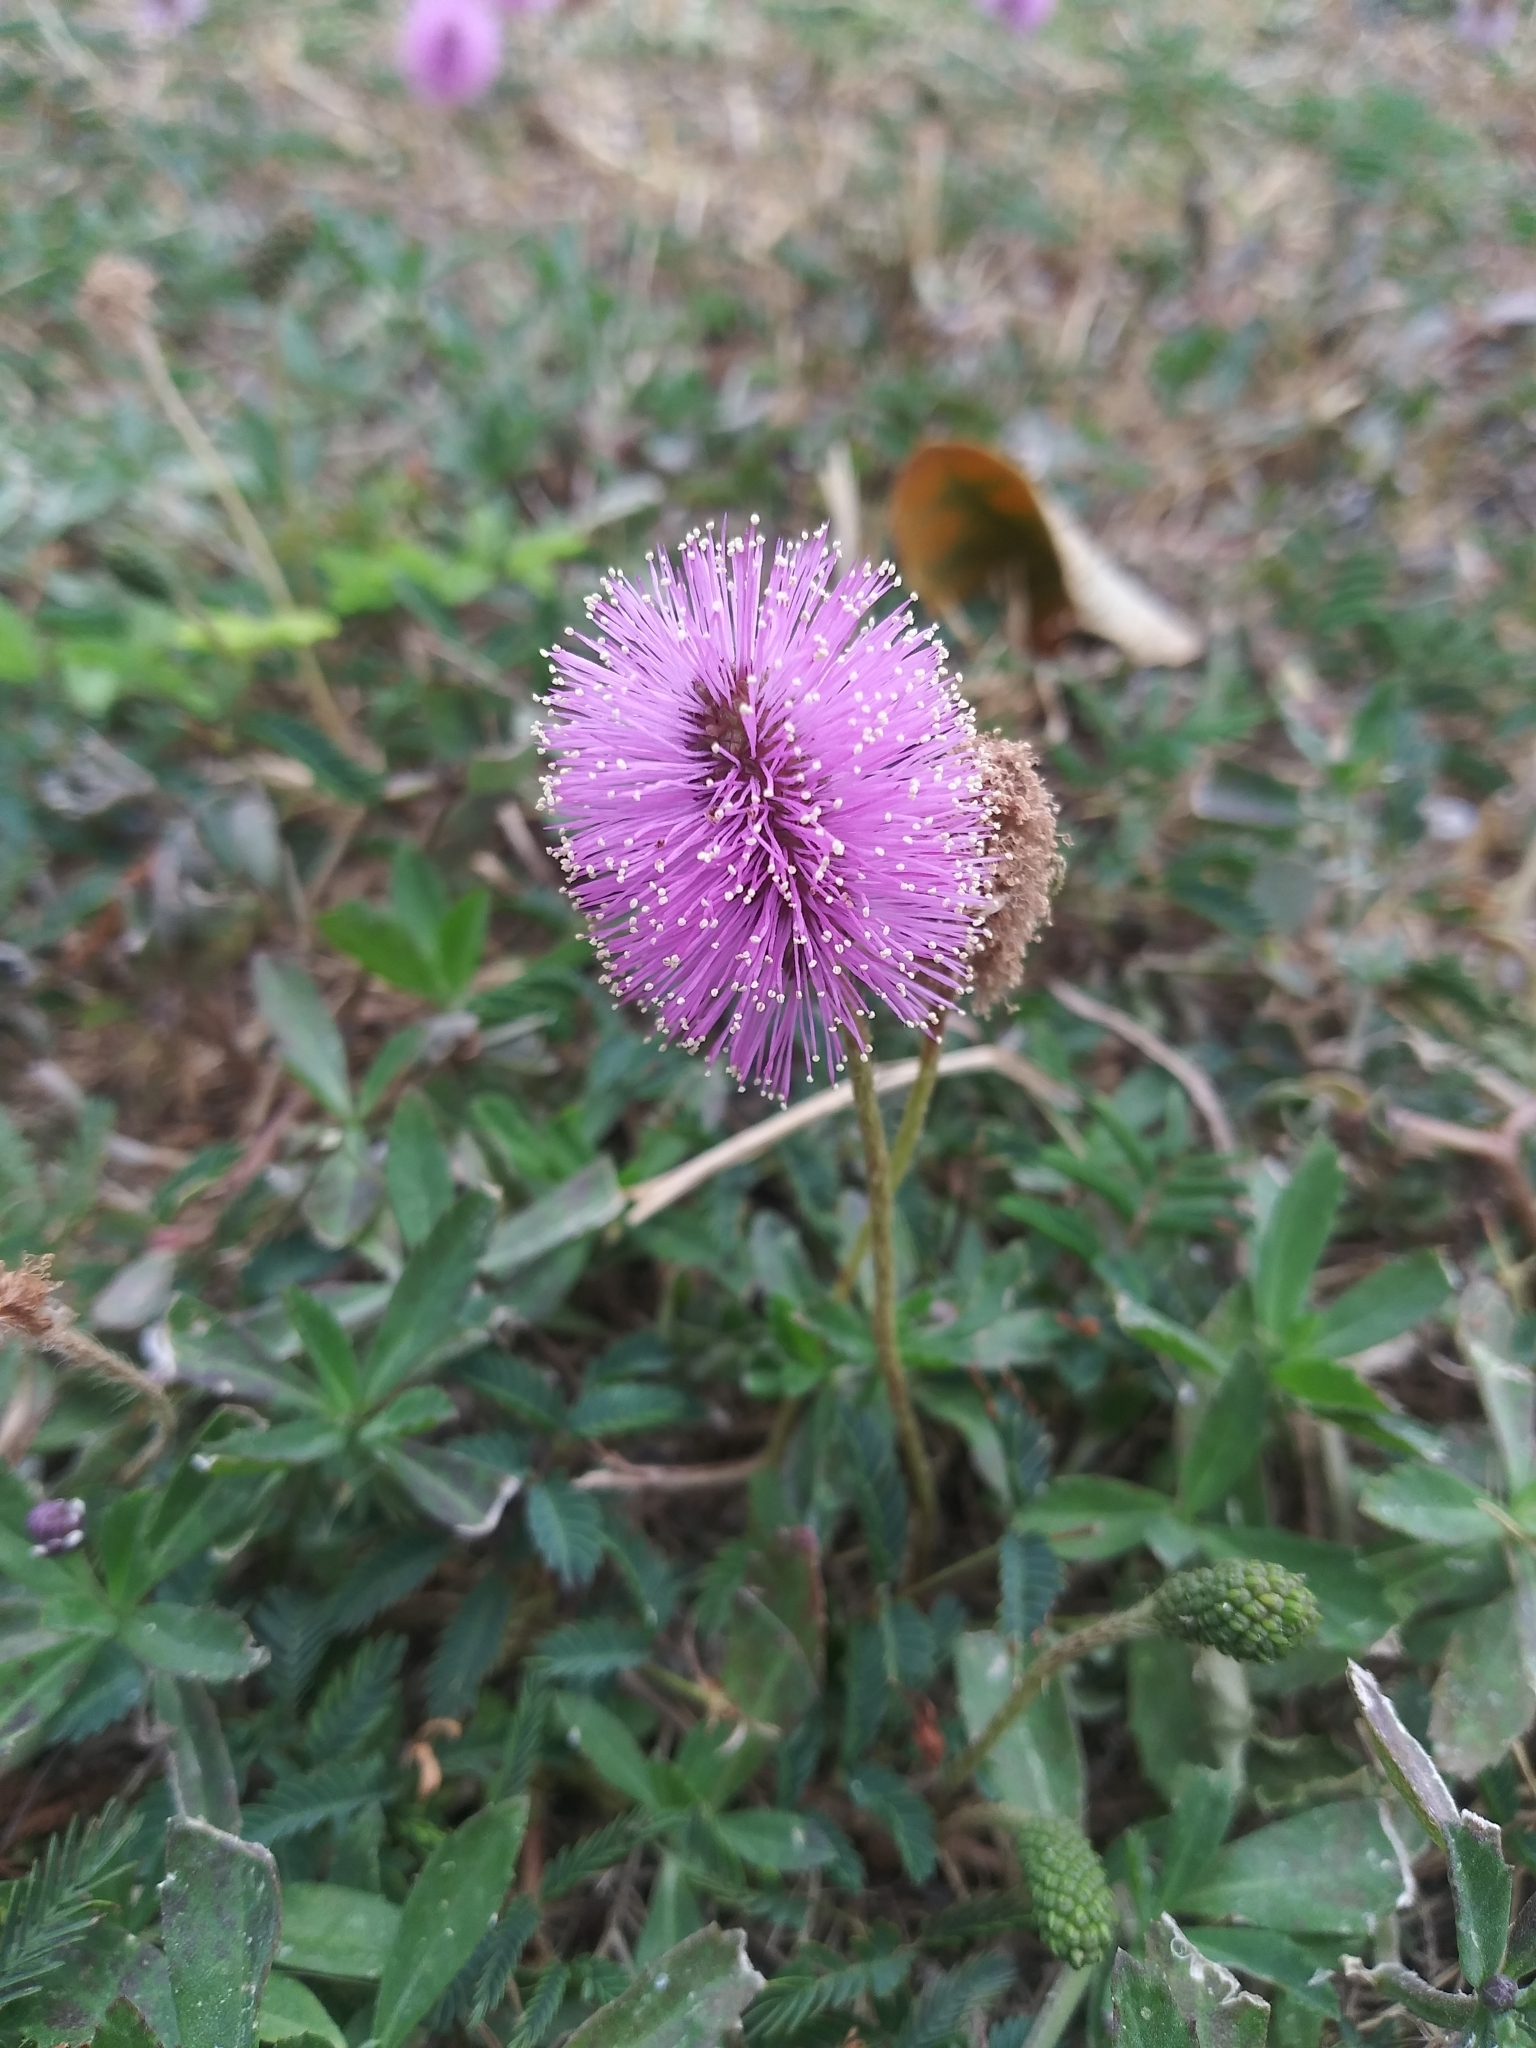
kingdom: Plantae
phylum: Tracheophyta
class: Magnoliopsida
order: Fabales
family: Fabaceae
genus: Mimosa
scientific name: Mimosa strigillosa
